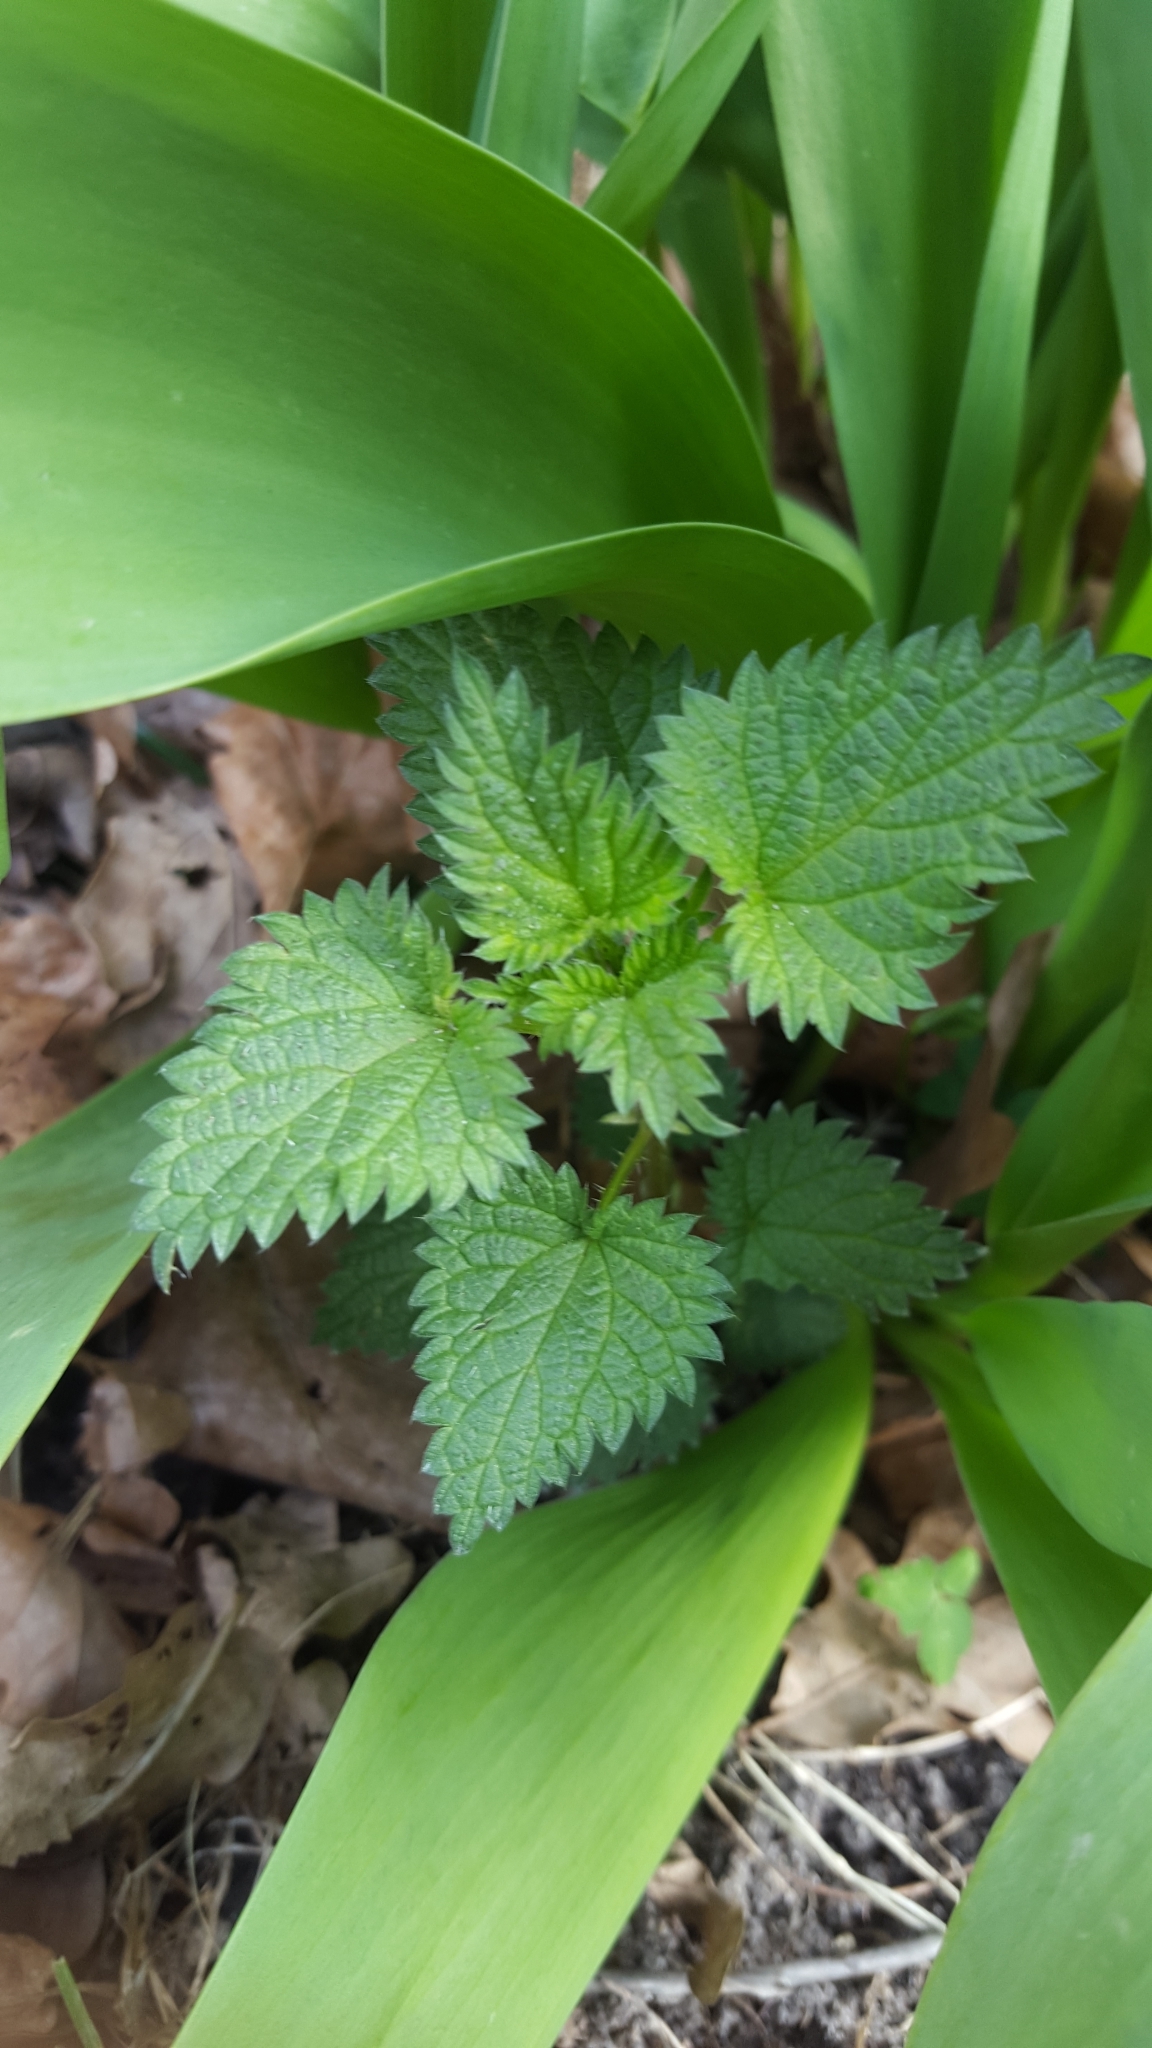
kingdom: Plantae
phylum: Tracheophyta
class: Magnoliopsida
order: Rosales
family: Urticaceae
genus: Urtica
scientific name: Urtica dioica
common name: Common nettle
